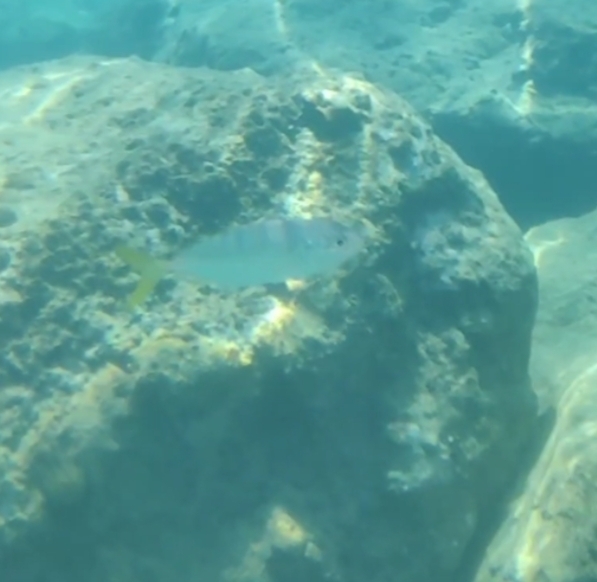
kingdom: Animalia
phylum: Chordata
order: Perciformes
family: Carangidae
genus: Caranx
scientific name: Caranx crysos
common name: Blue runner
